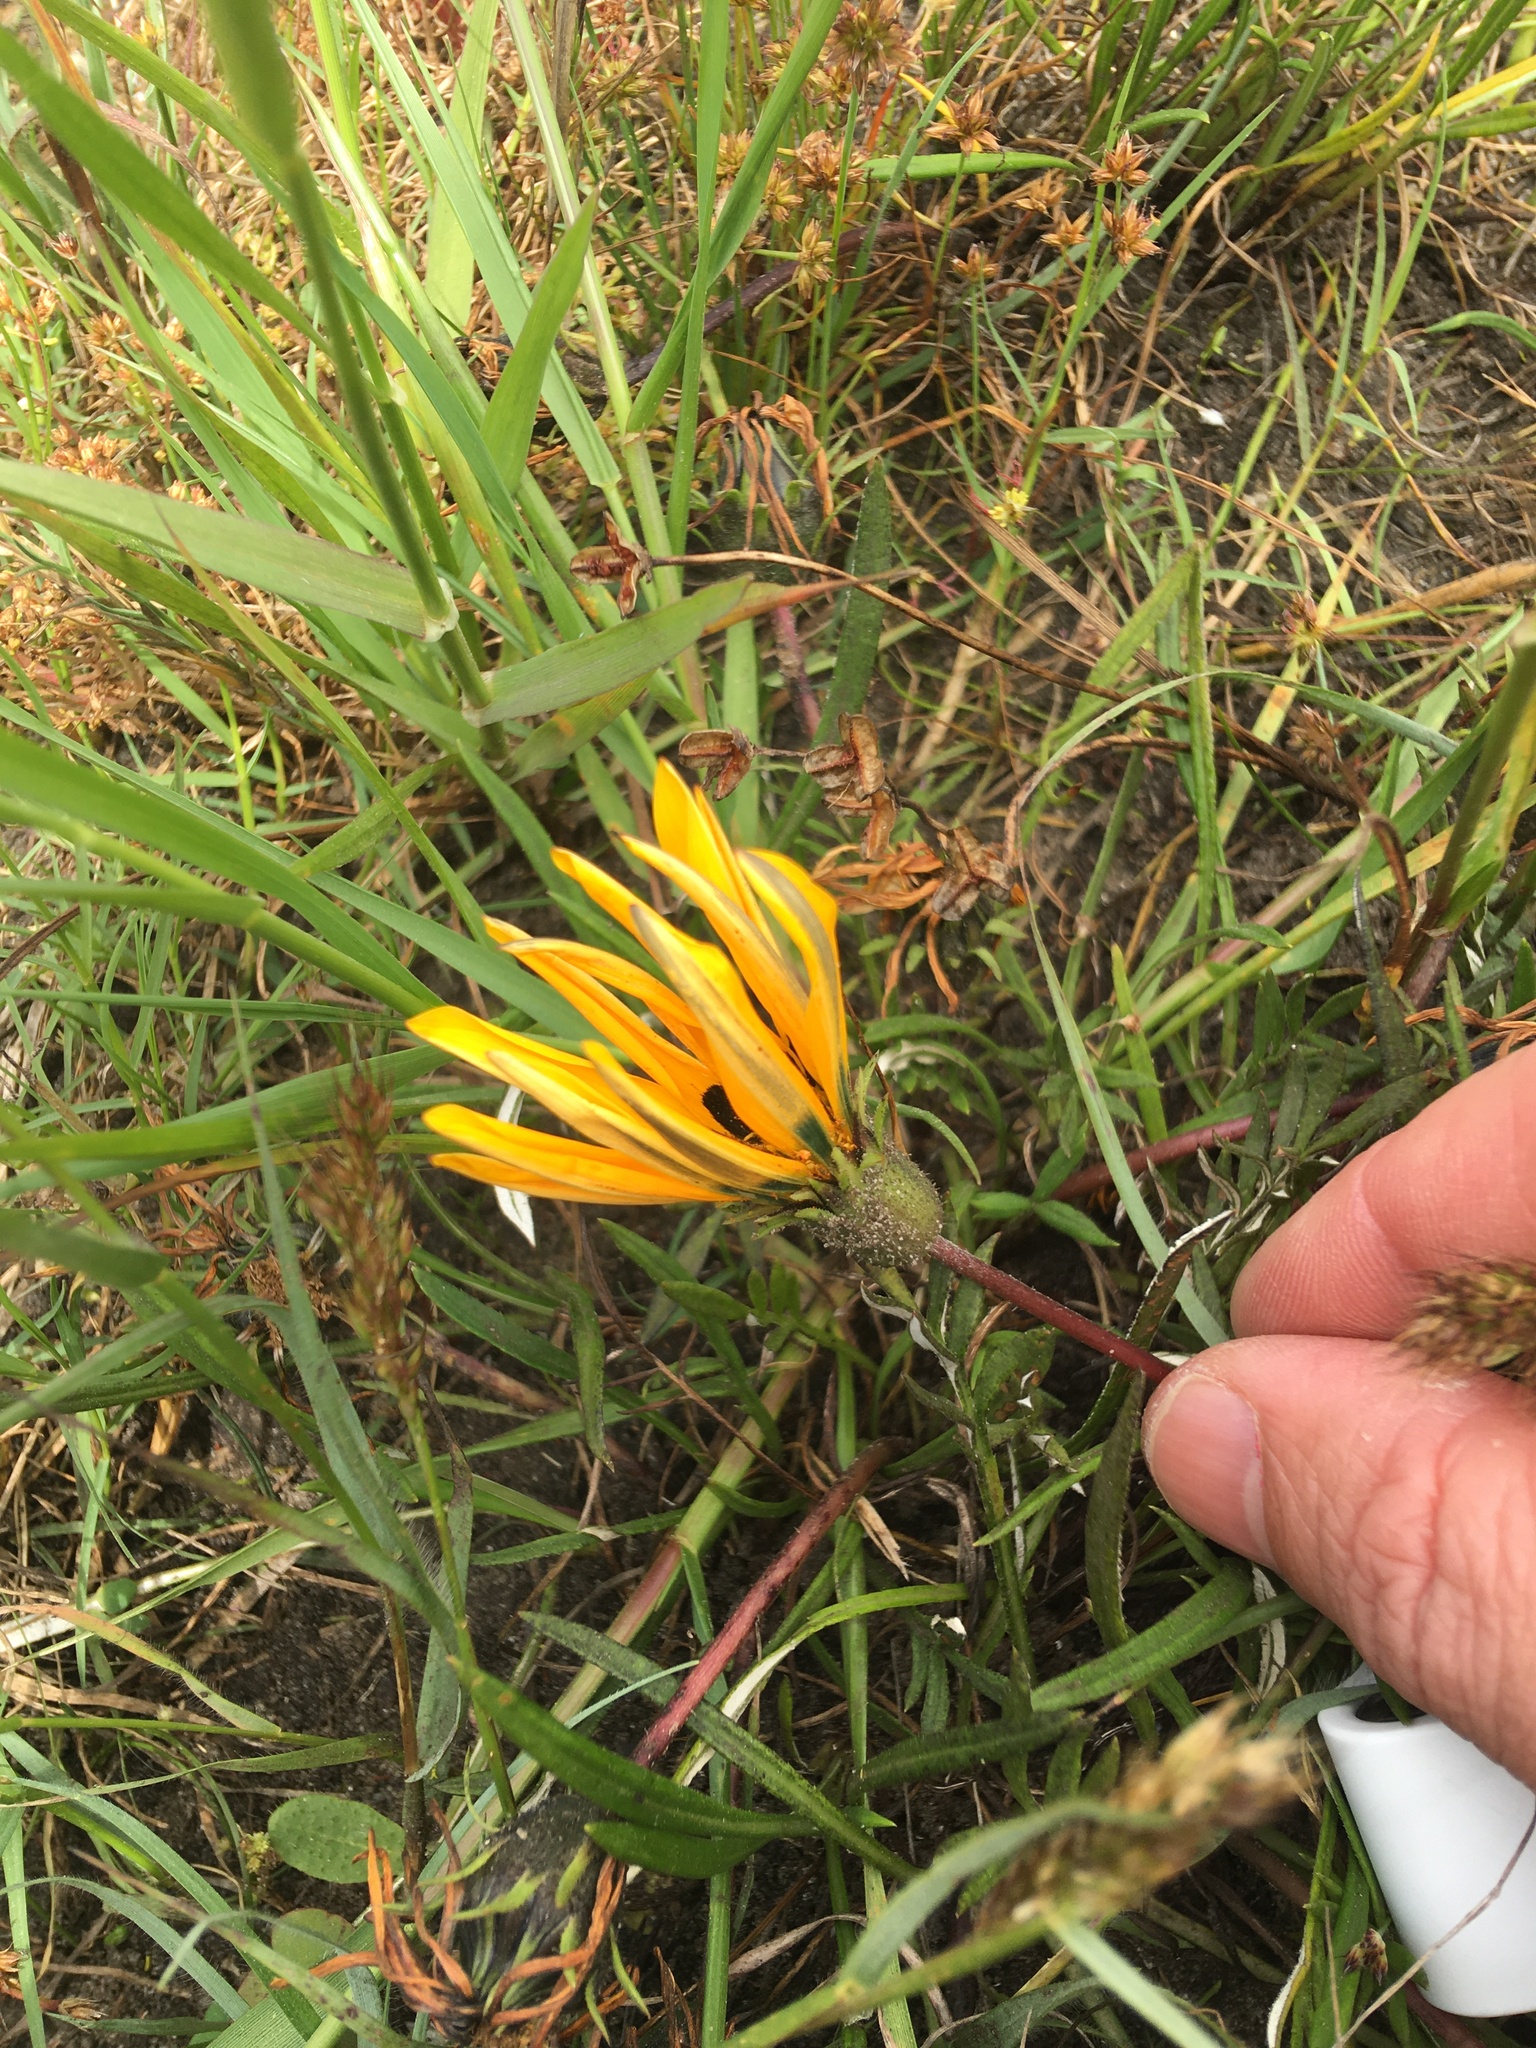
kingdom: Plantae
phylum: Tracheophyta
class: Magnoliopsida
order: Asterales
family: Asteraceae
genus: Gazania
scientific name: Gazania pectinata
